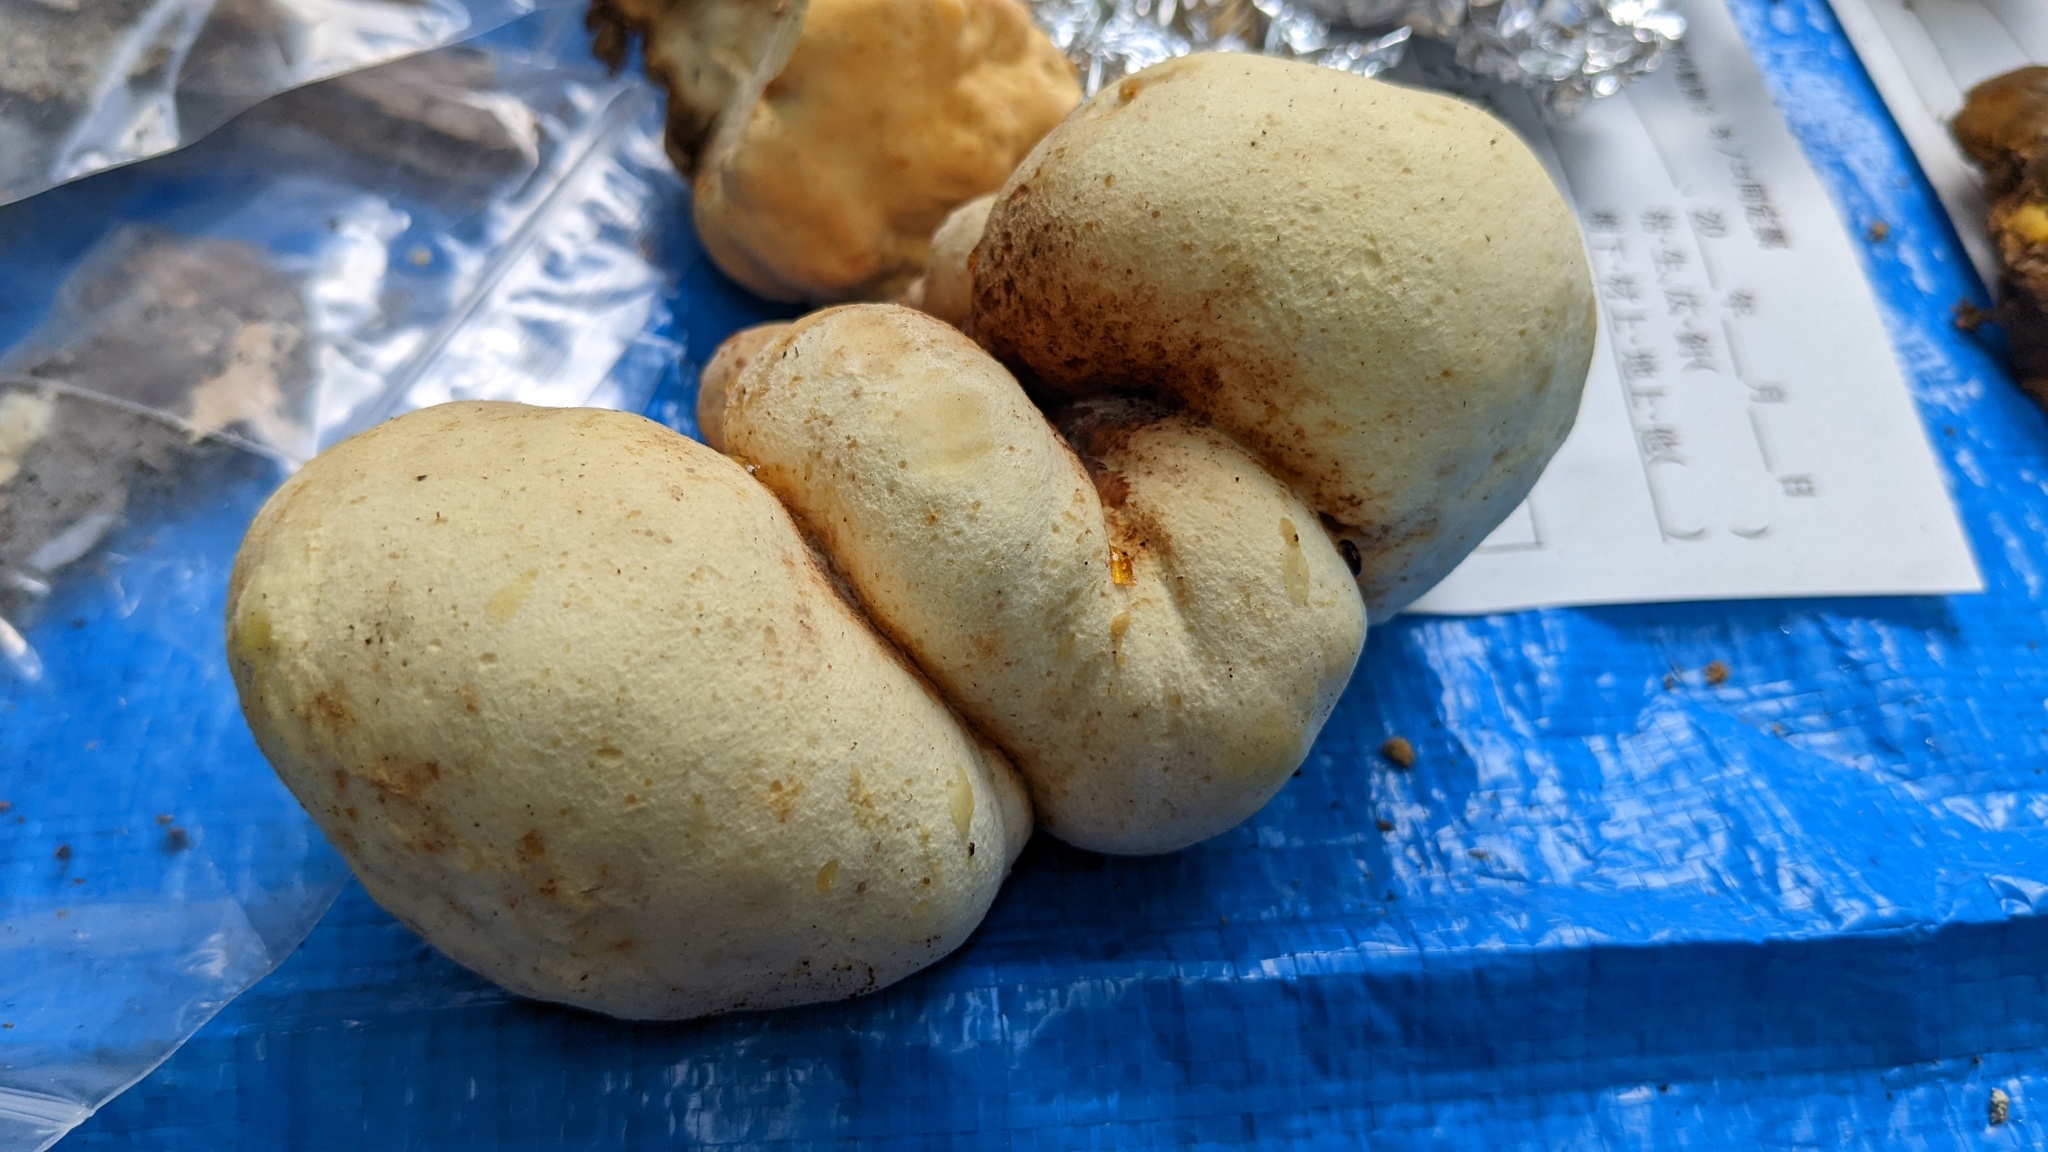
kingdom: Fungi
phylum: Basidiomycota
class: Agaricomycetes
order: Polyporales
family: Laetiporaceae
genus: Laetiporus
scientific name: Laetiporus sulphureus
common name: Chicken of the woods
